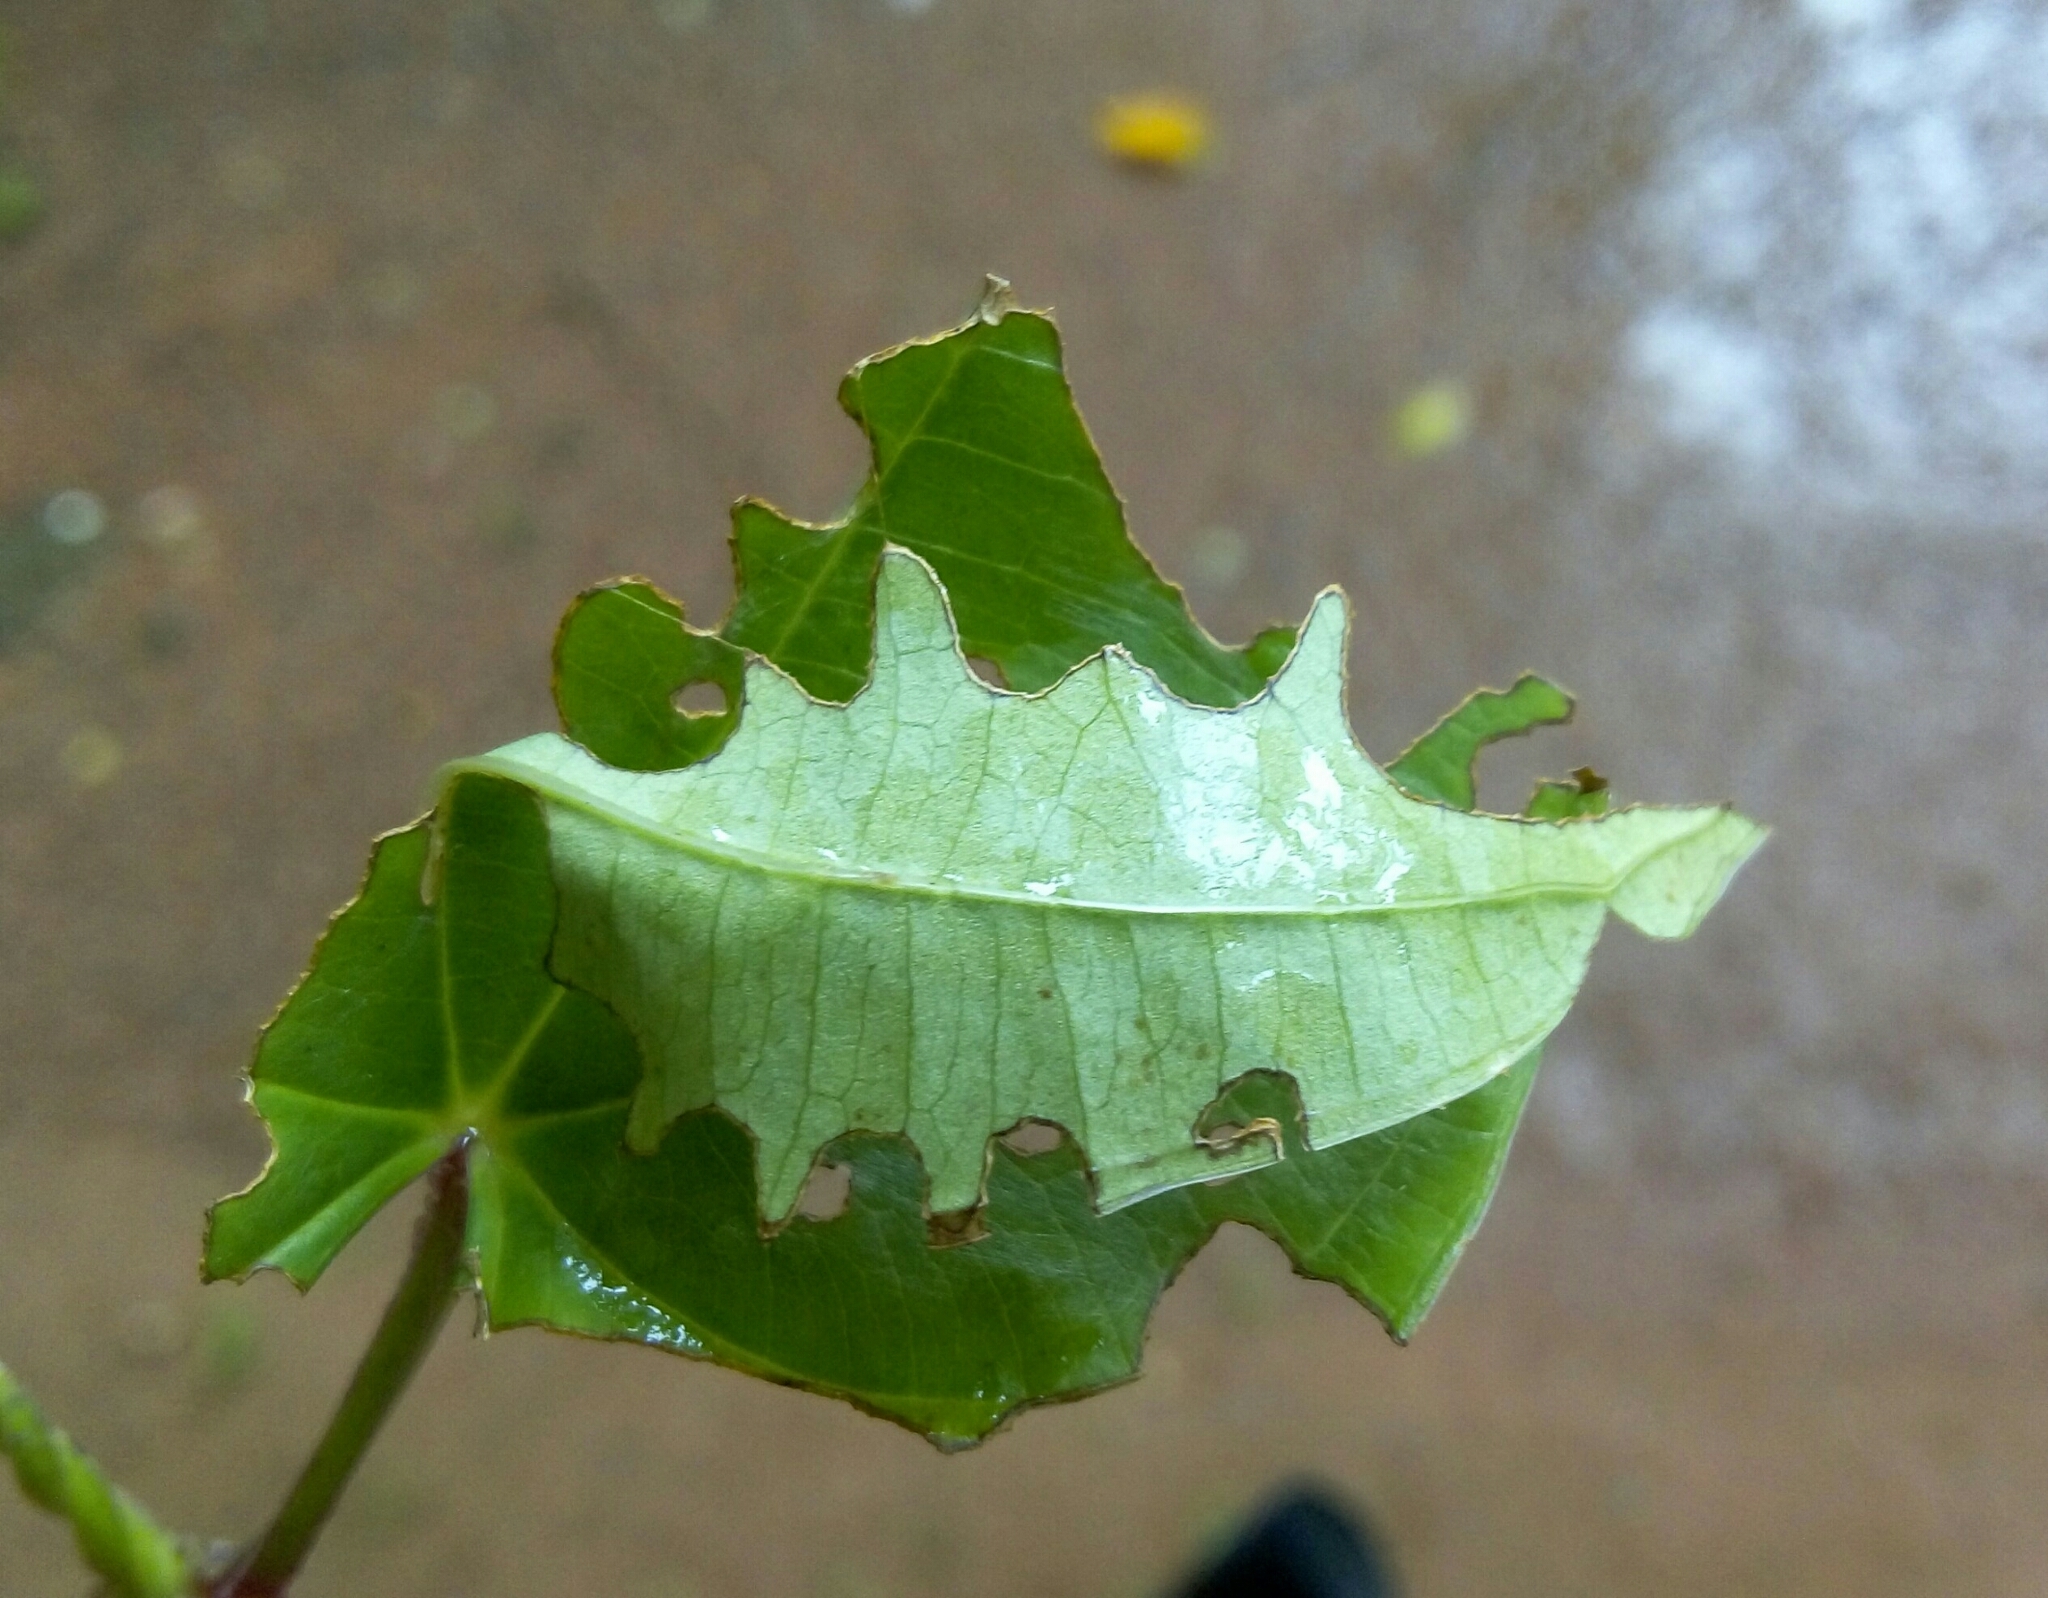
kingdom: Animalia
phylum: Arthropoda
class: Insecta
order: Lepidoptera
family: Hesperiidae
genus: Tagiades
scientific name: Tagiades litigiosa
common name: Water snow flat
